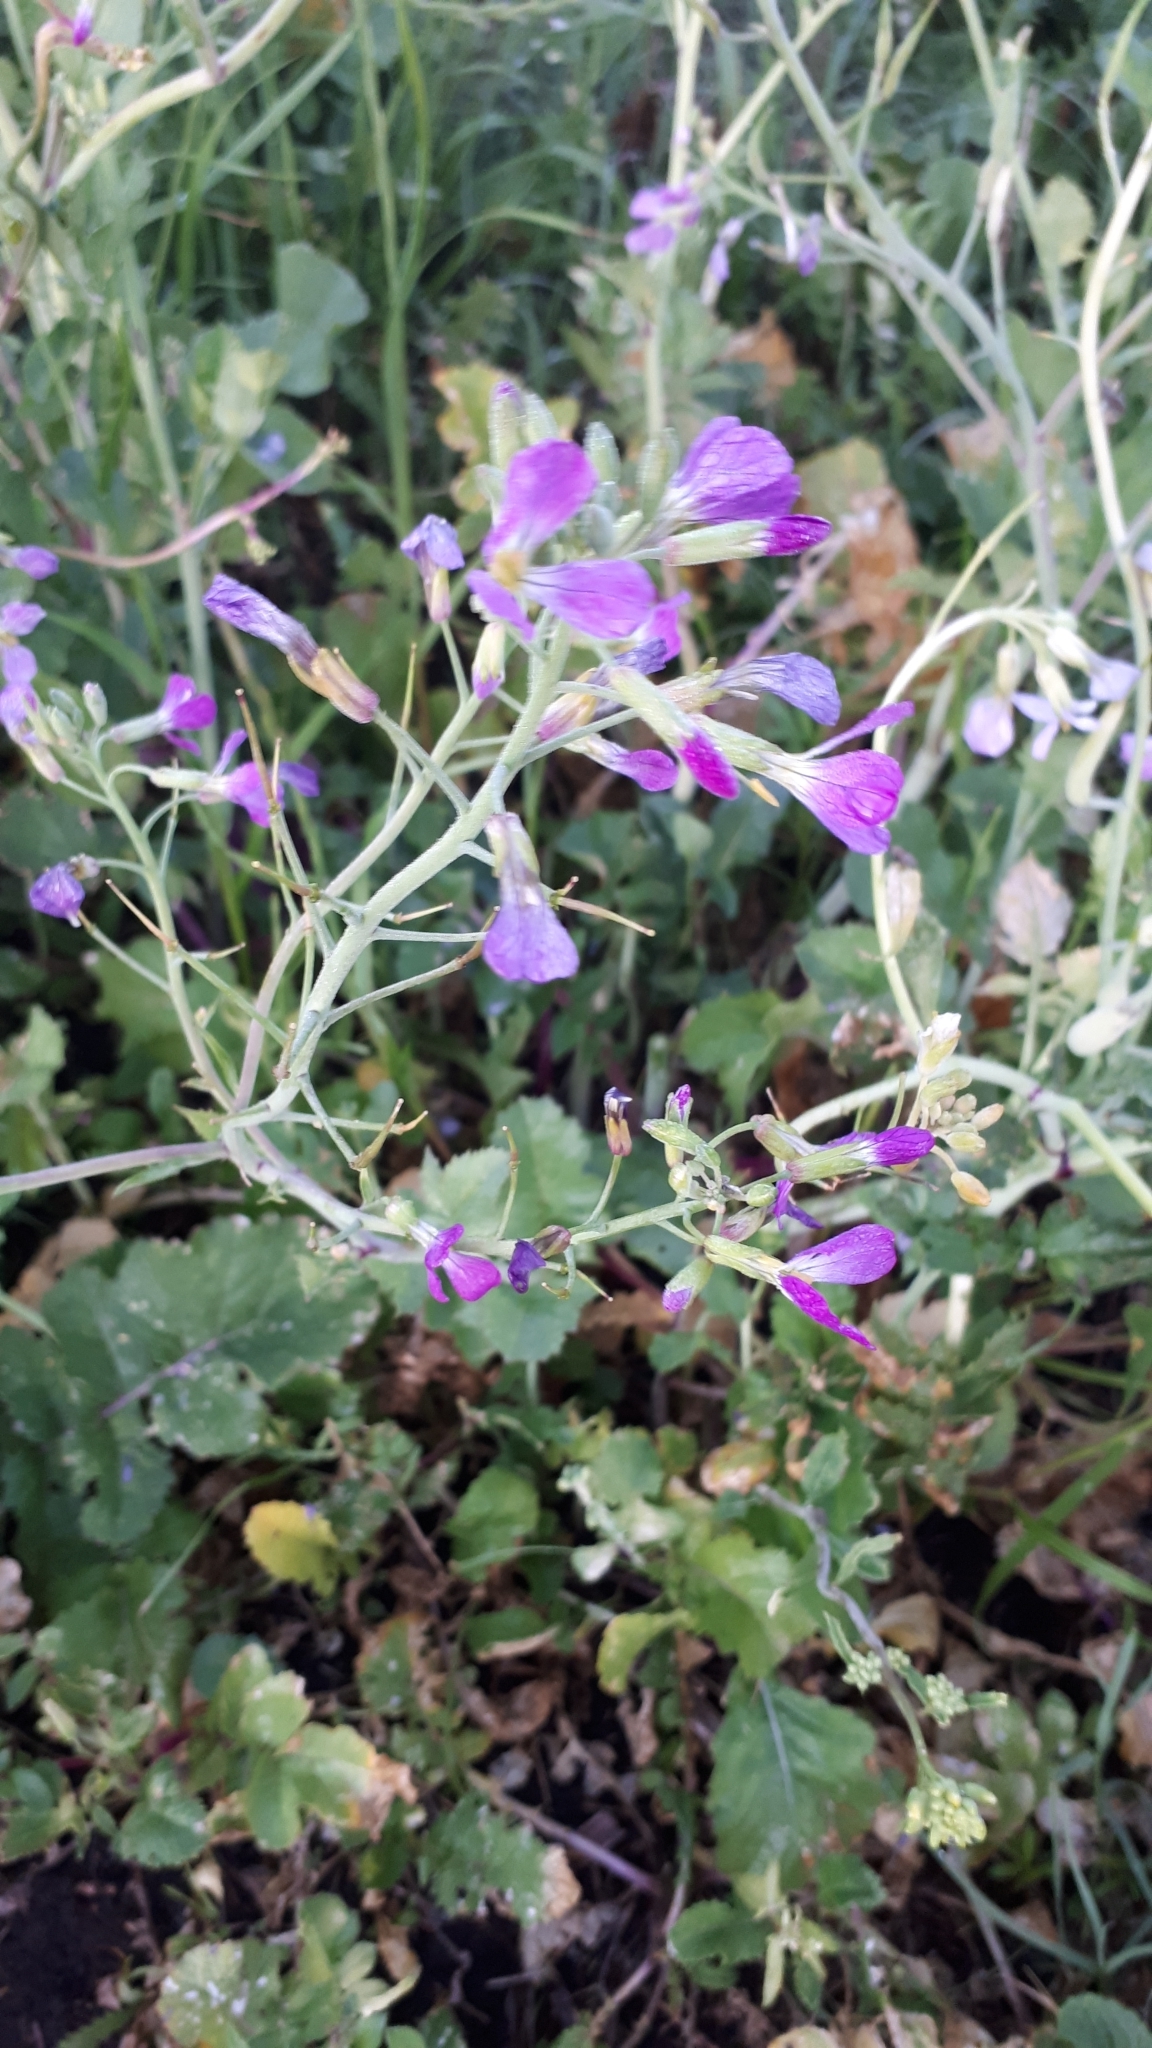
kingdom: Plantae
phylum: Tracheophyta
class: Magnoliopsida
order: Brassicales
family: Brassicaceae
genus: Raphanus
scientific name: Raphanus sativus
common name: Cultivated radish
